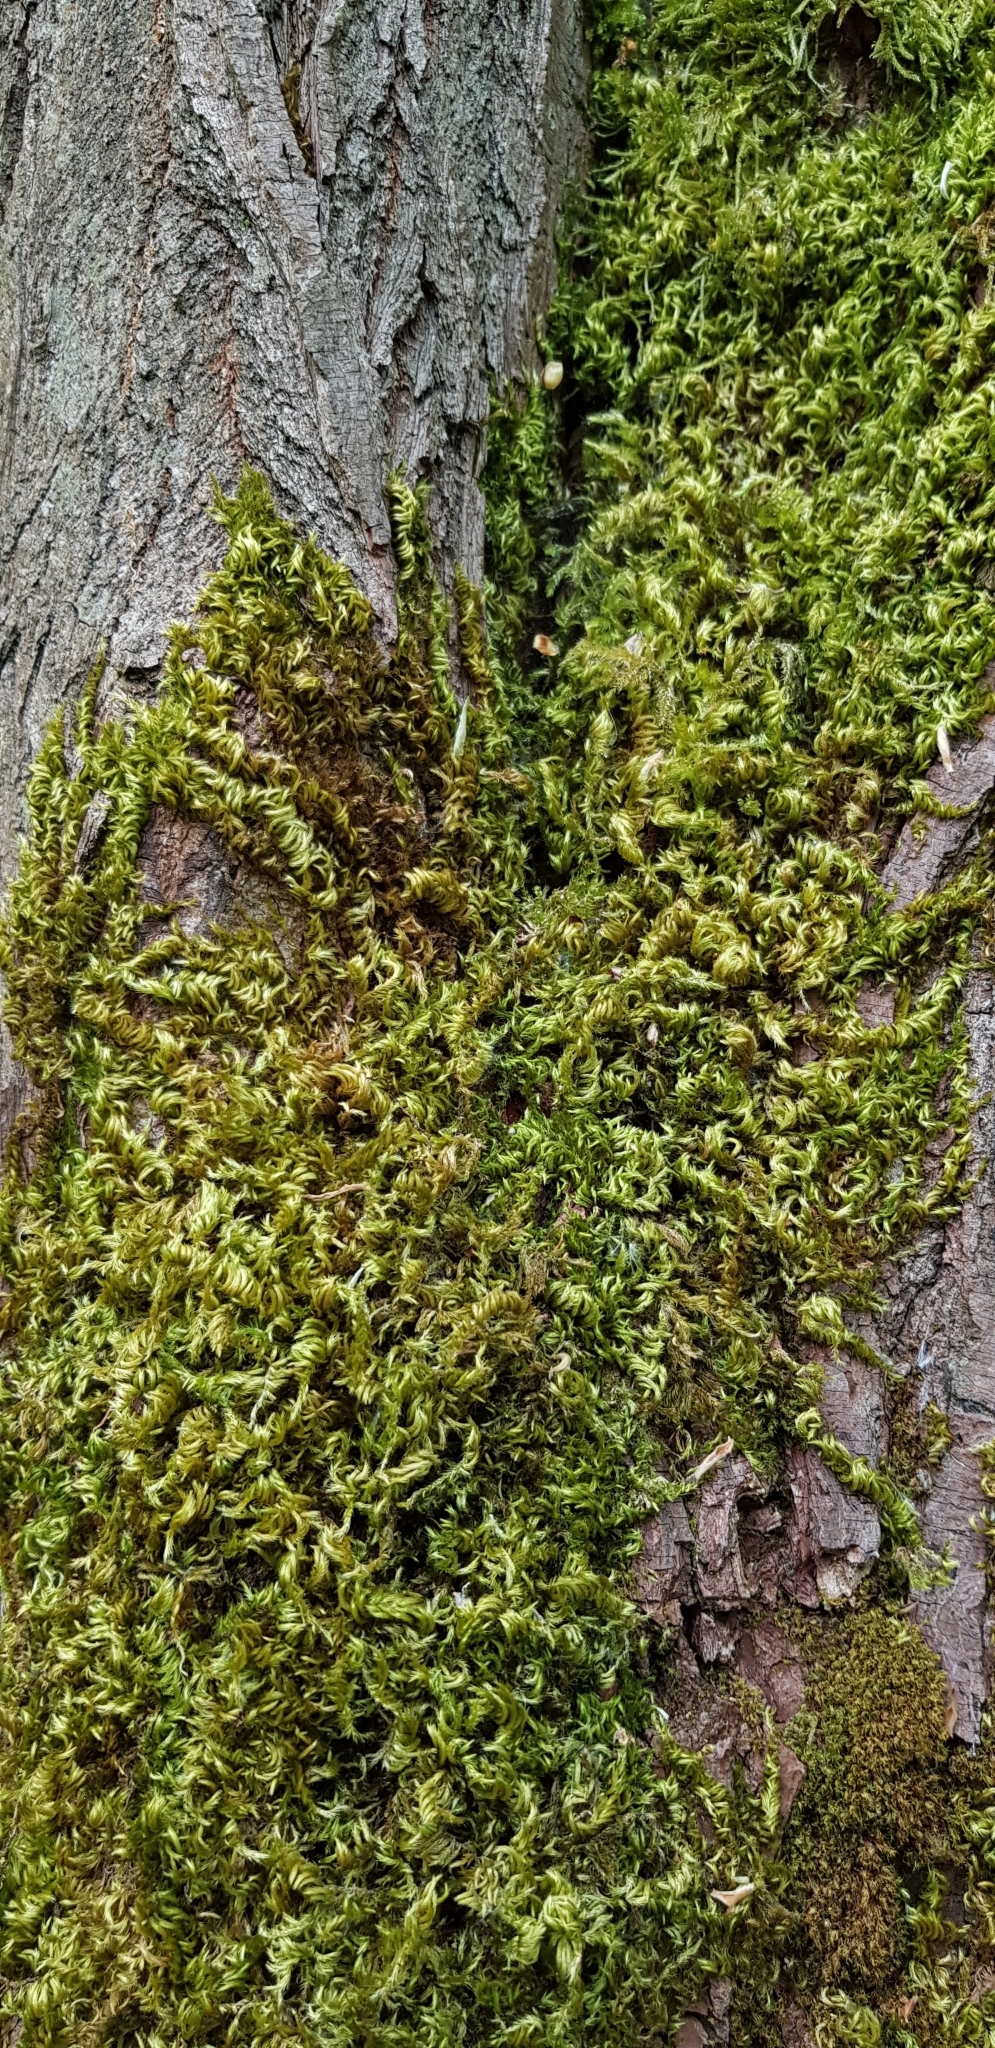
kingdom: Plantae
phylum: Bryophyta
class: Bryopsida
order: Hypnales
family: Brachytheciaceae
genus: Homalothecium
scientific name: Homalothecium sericeum
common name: Silky wall feather-moss
